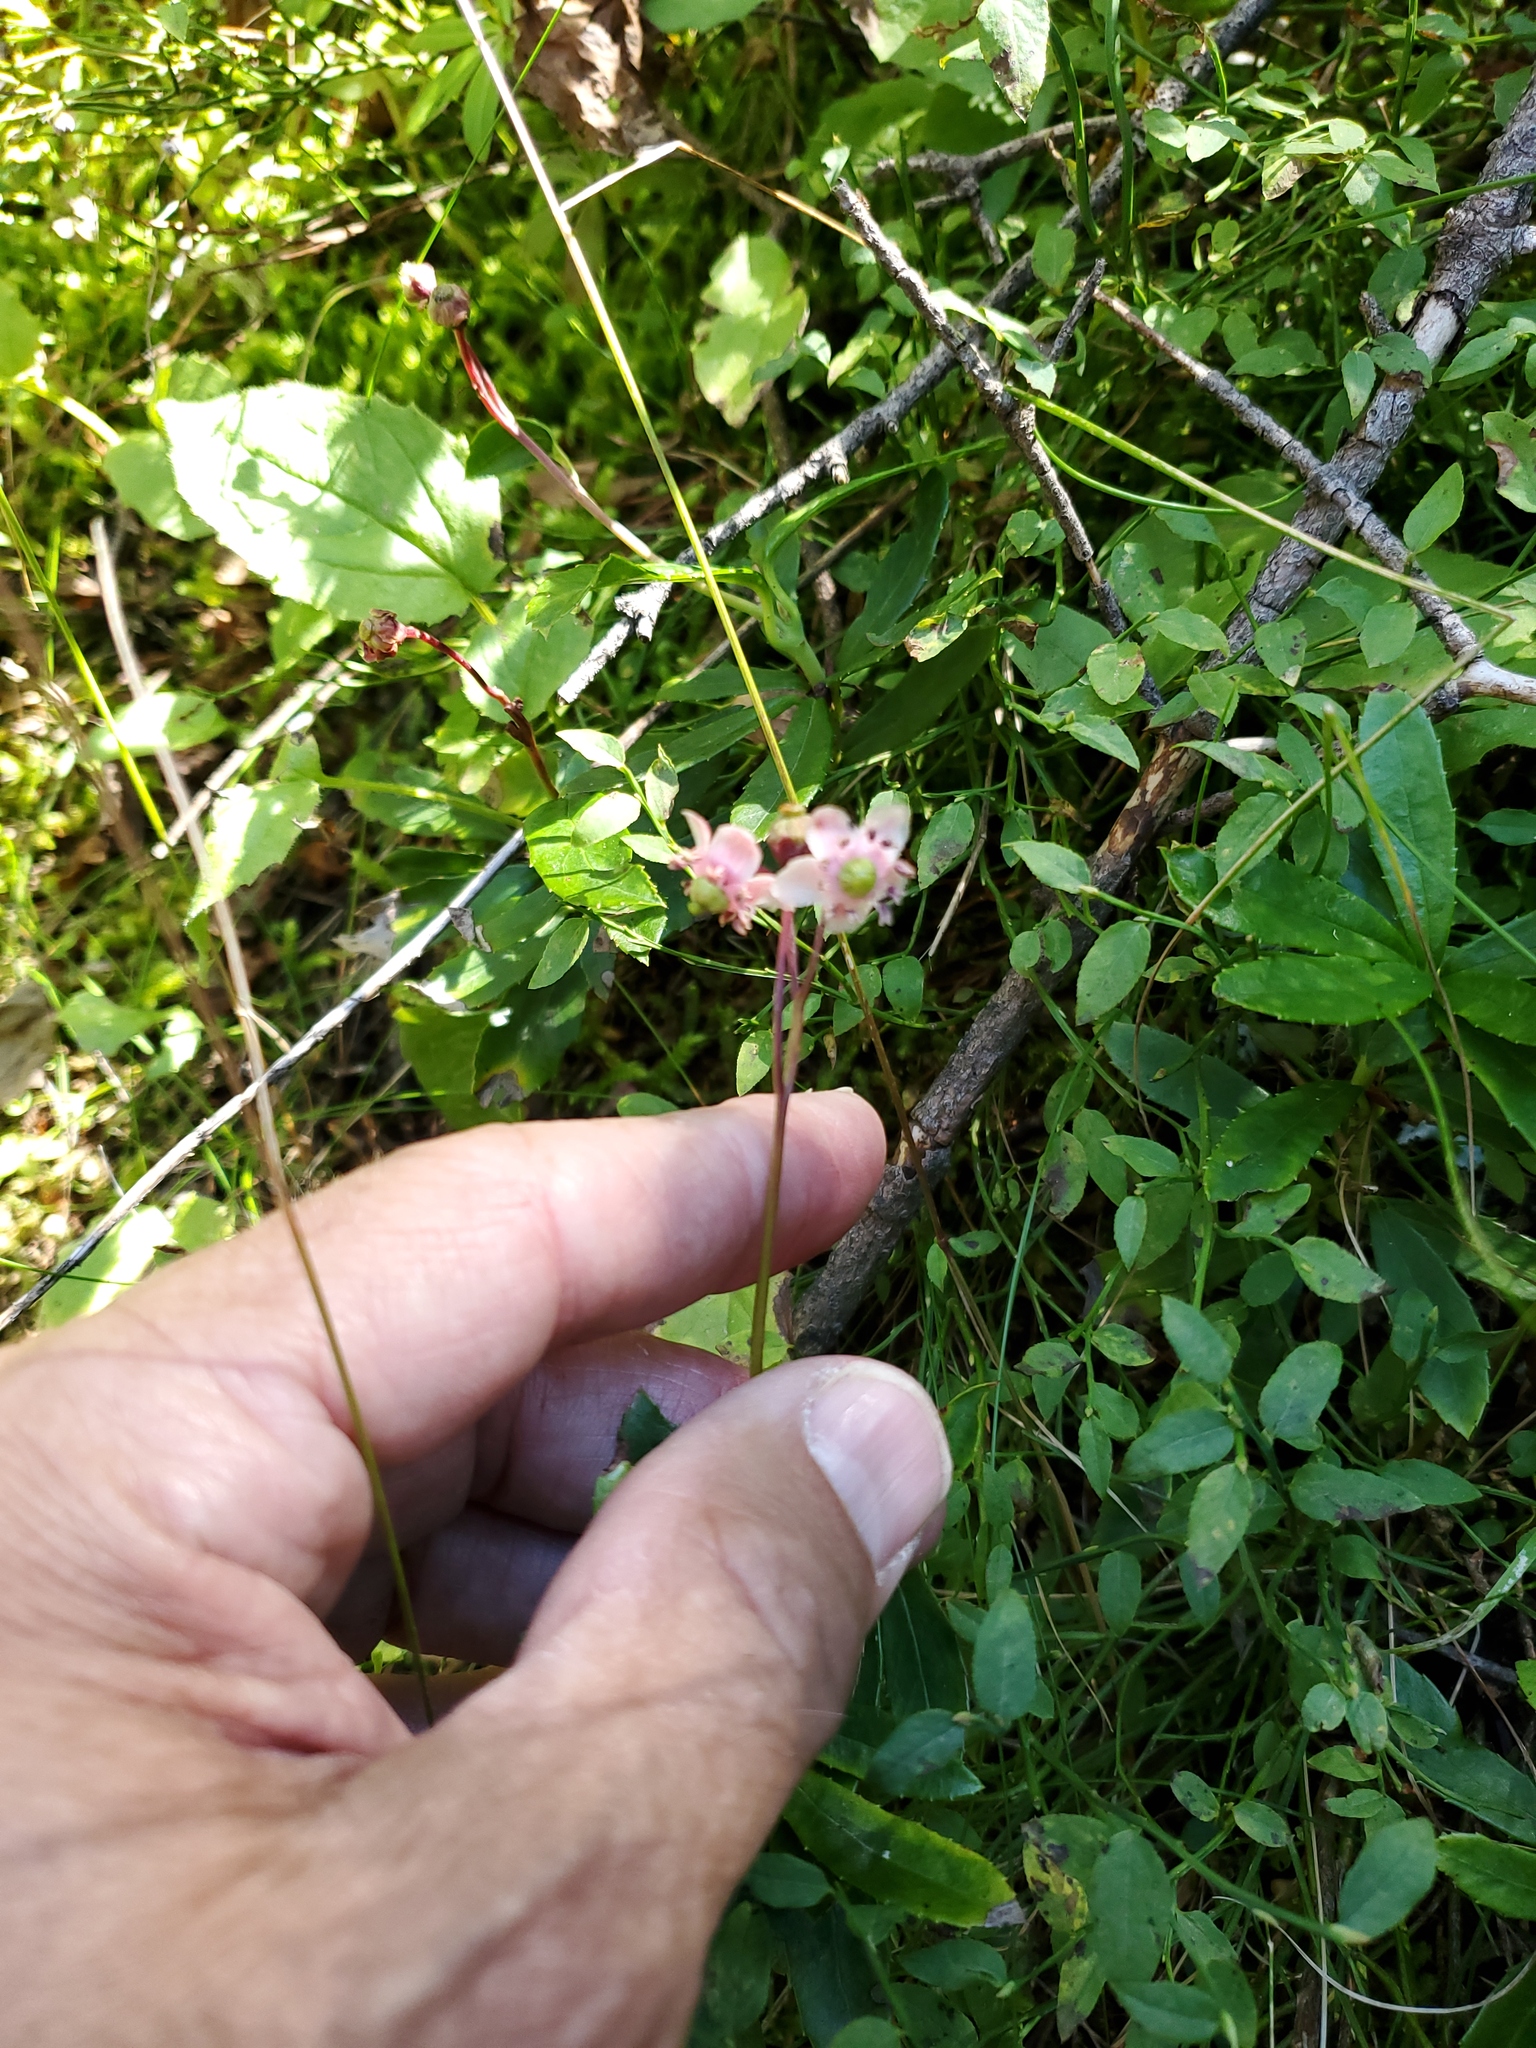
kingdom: Plantae
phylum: Tracheophyta
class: Magnoliopsida
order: Ericales
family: Ericaceae
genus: Chimaphila
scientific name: Chimaphila umbellata
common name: Pipsissewa
